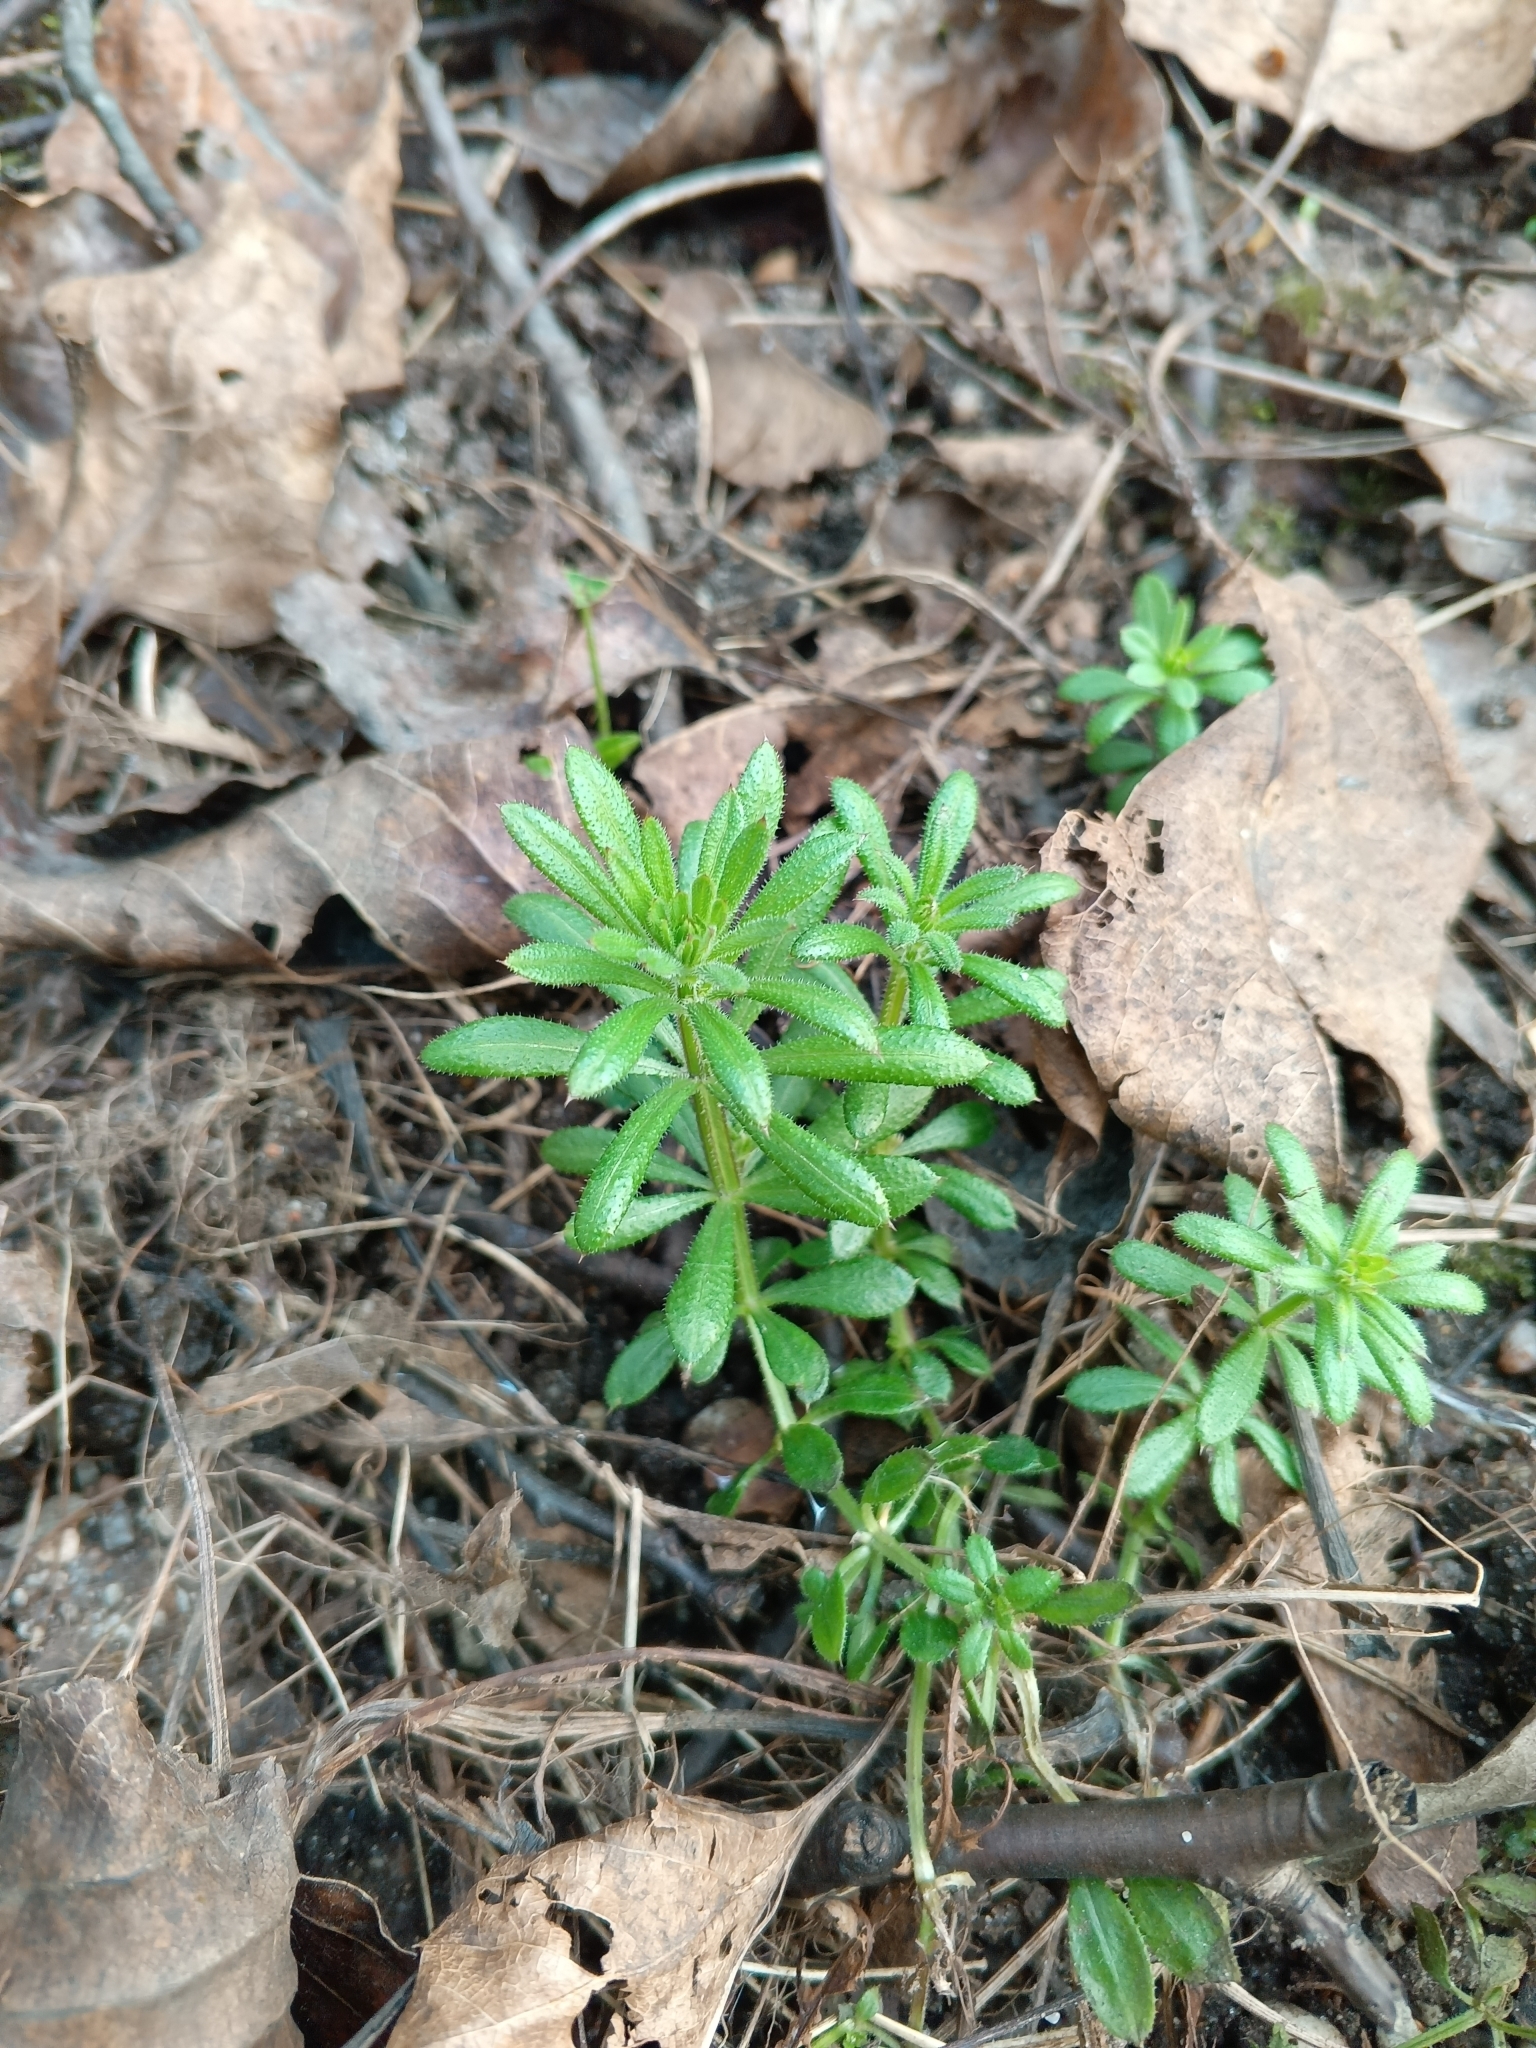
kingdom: Plantae
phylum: Tracheophyta
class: Magnoliopsida
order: Gentianales
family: Rubiaceae
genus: Galium
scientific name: Galium aparine
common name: Cleavers
